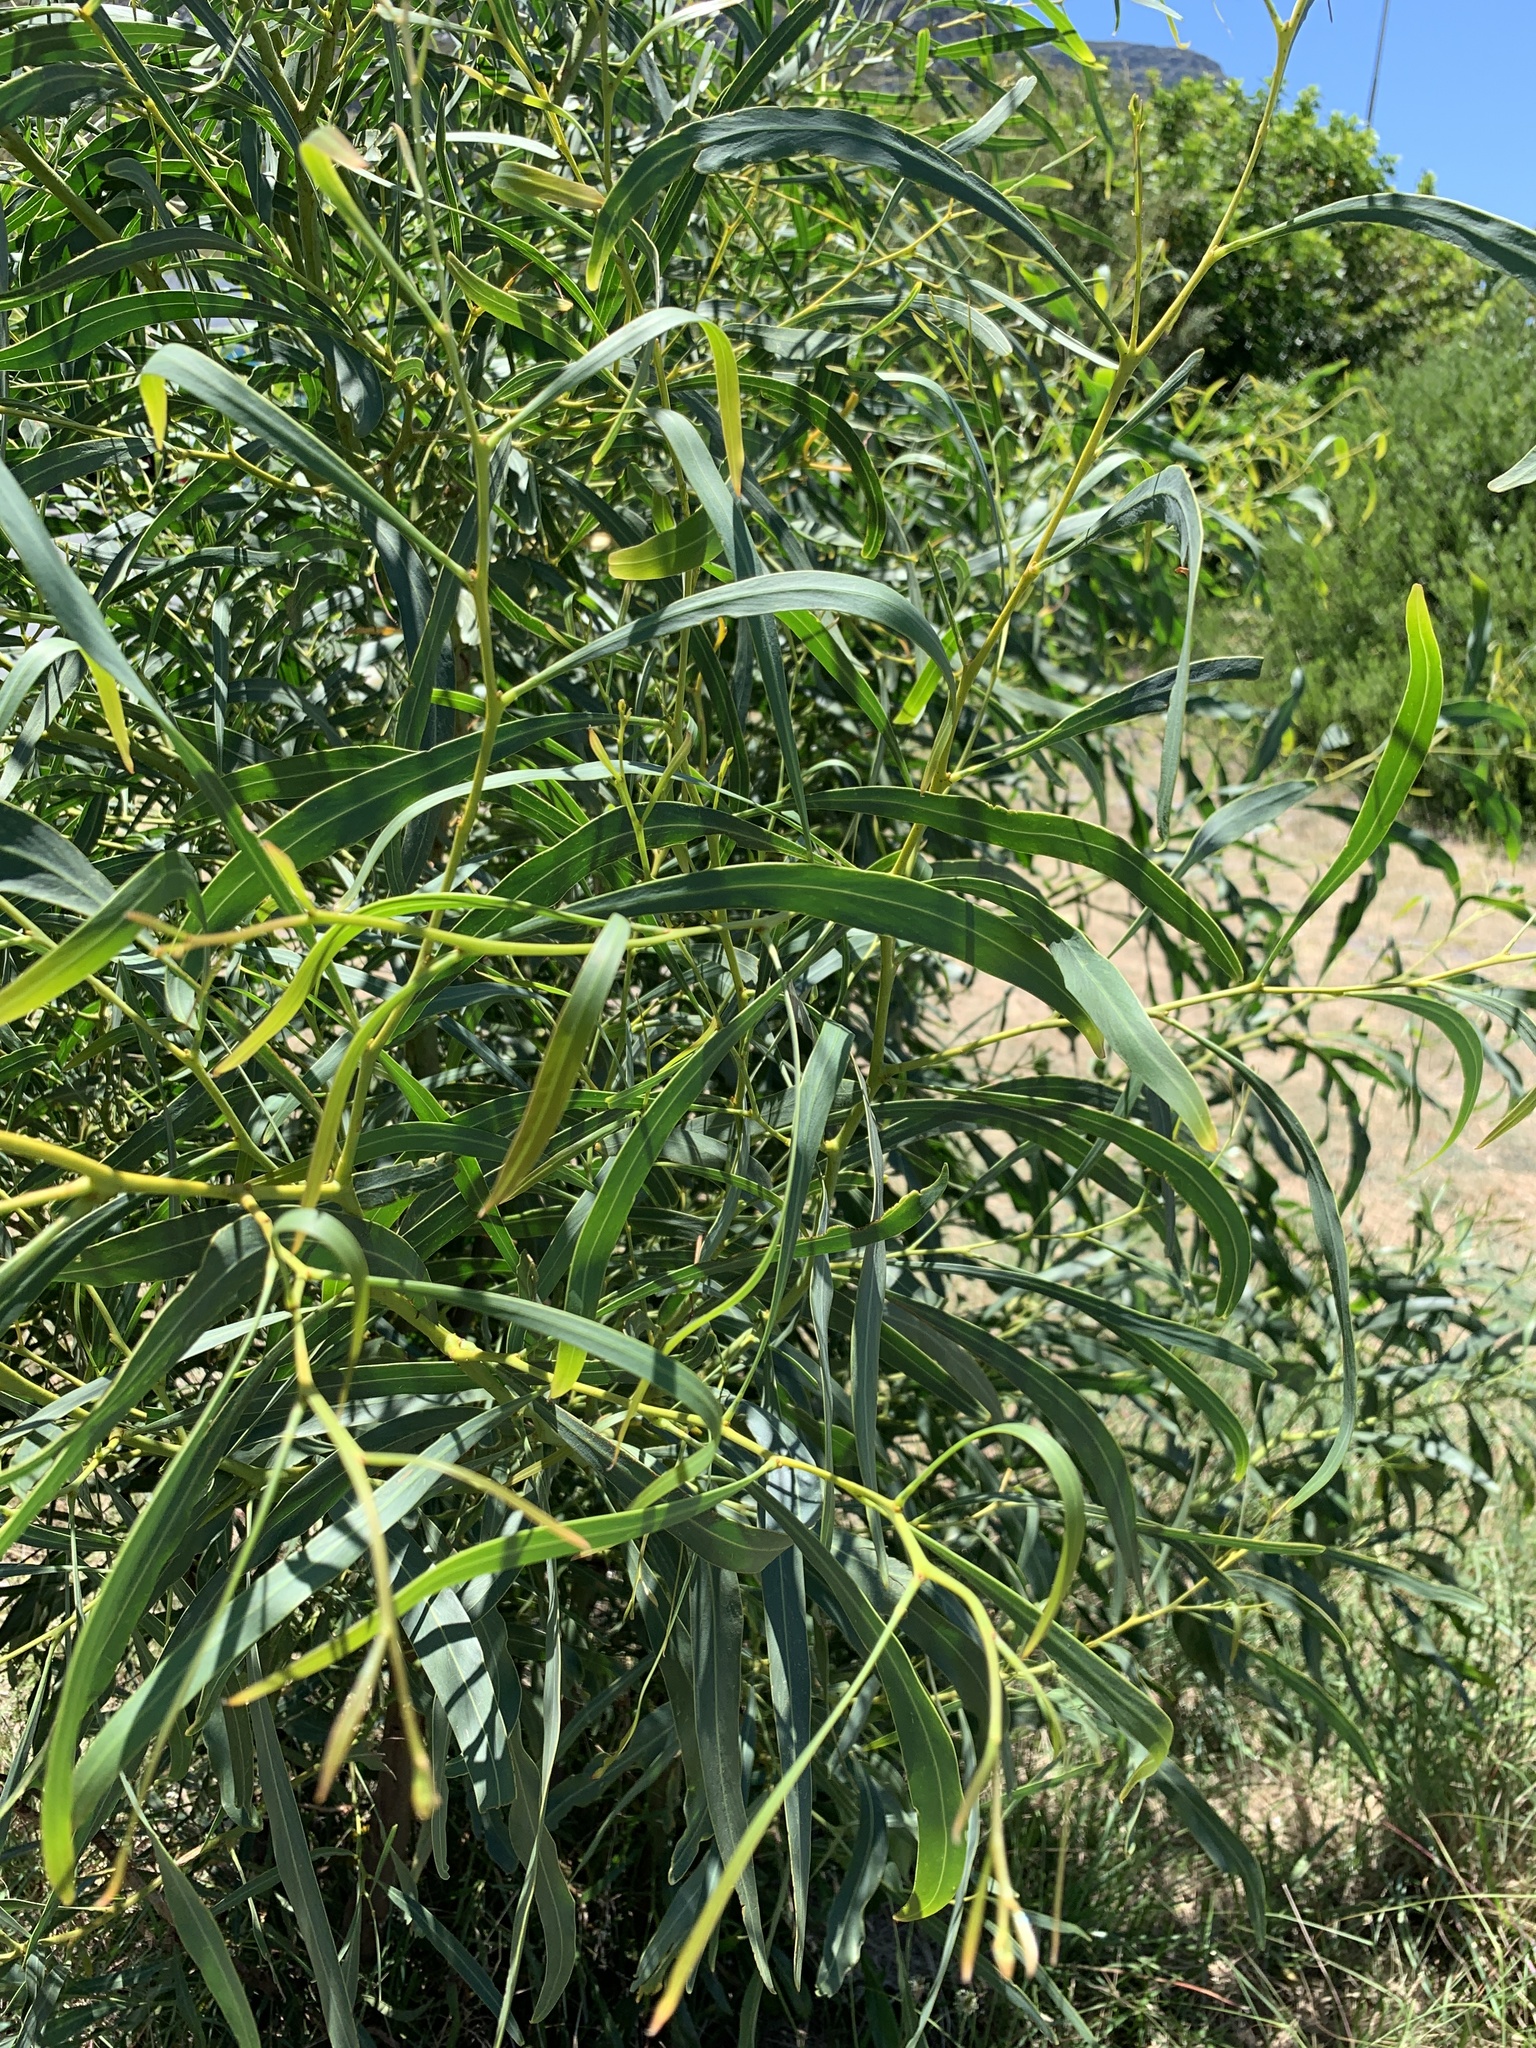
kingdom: Plantae
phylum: Tracheophyta
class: Magnoliopsida
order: Fabales
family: Fabaceae
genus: Acacia
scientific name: Acacia saligna
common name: Orange wattle
